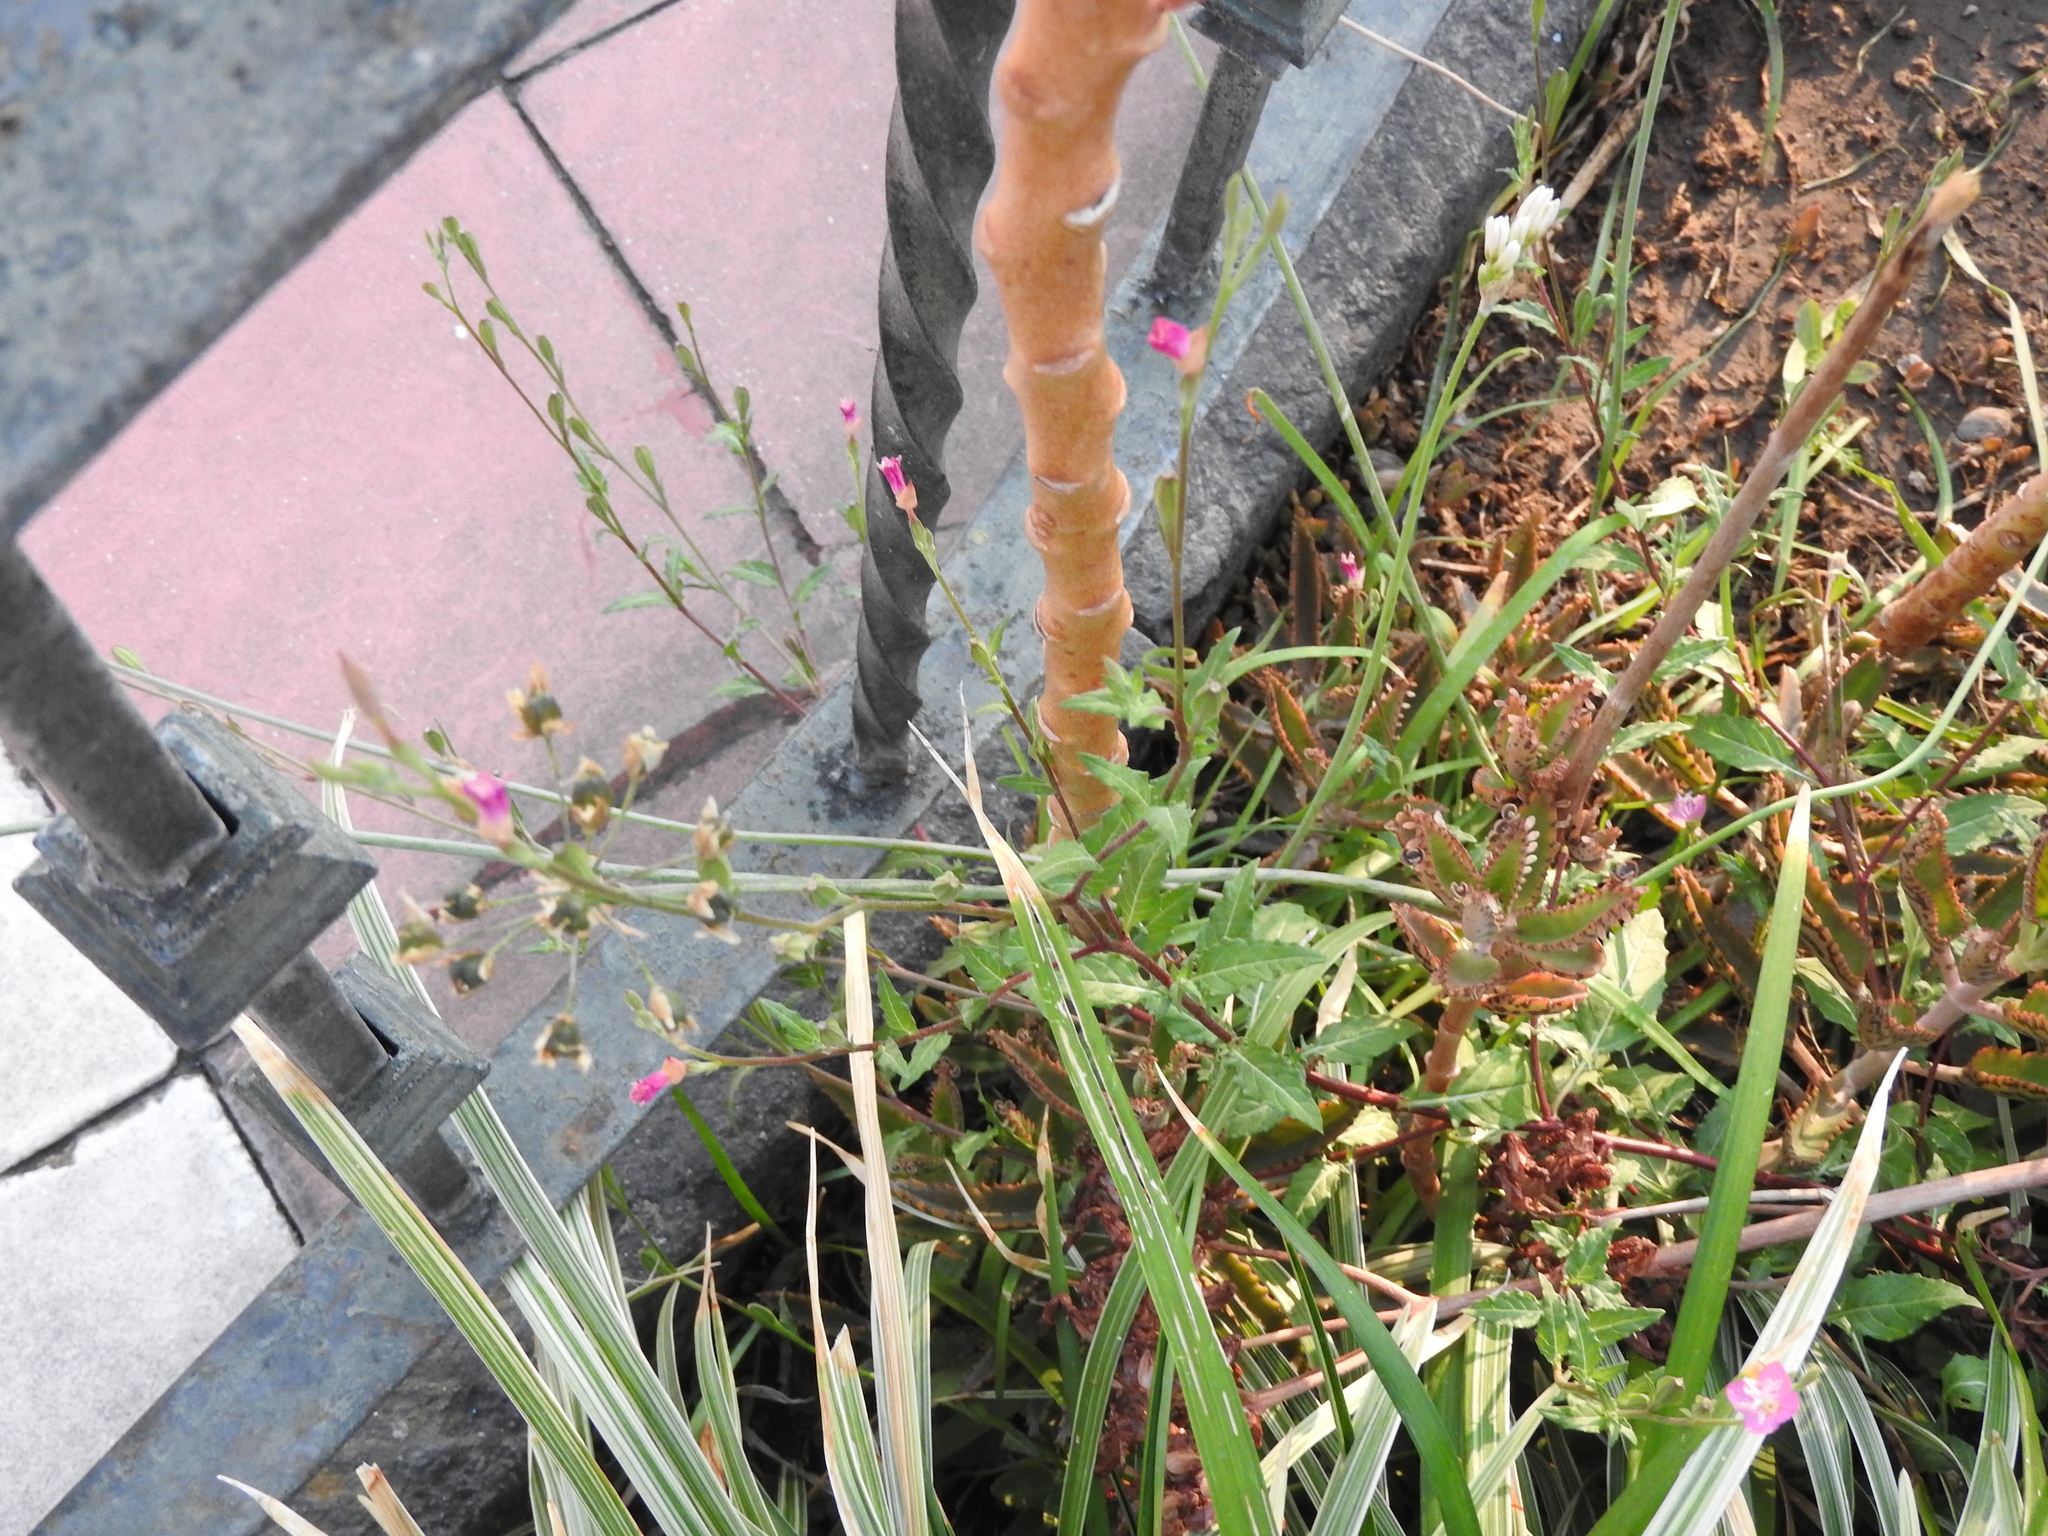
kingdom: Plantae
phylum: Tracheophyta
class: Magnoliopsida
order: Myrtales
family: Onagraceae
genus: Oenothera
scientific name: Oenothera rosea
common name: Rosy evening-primrose
